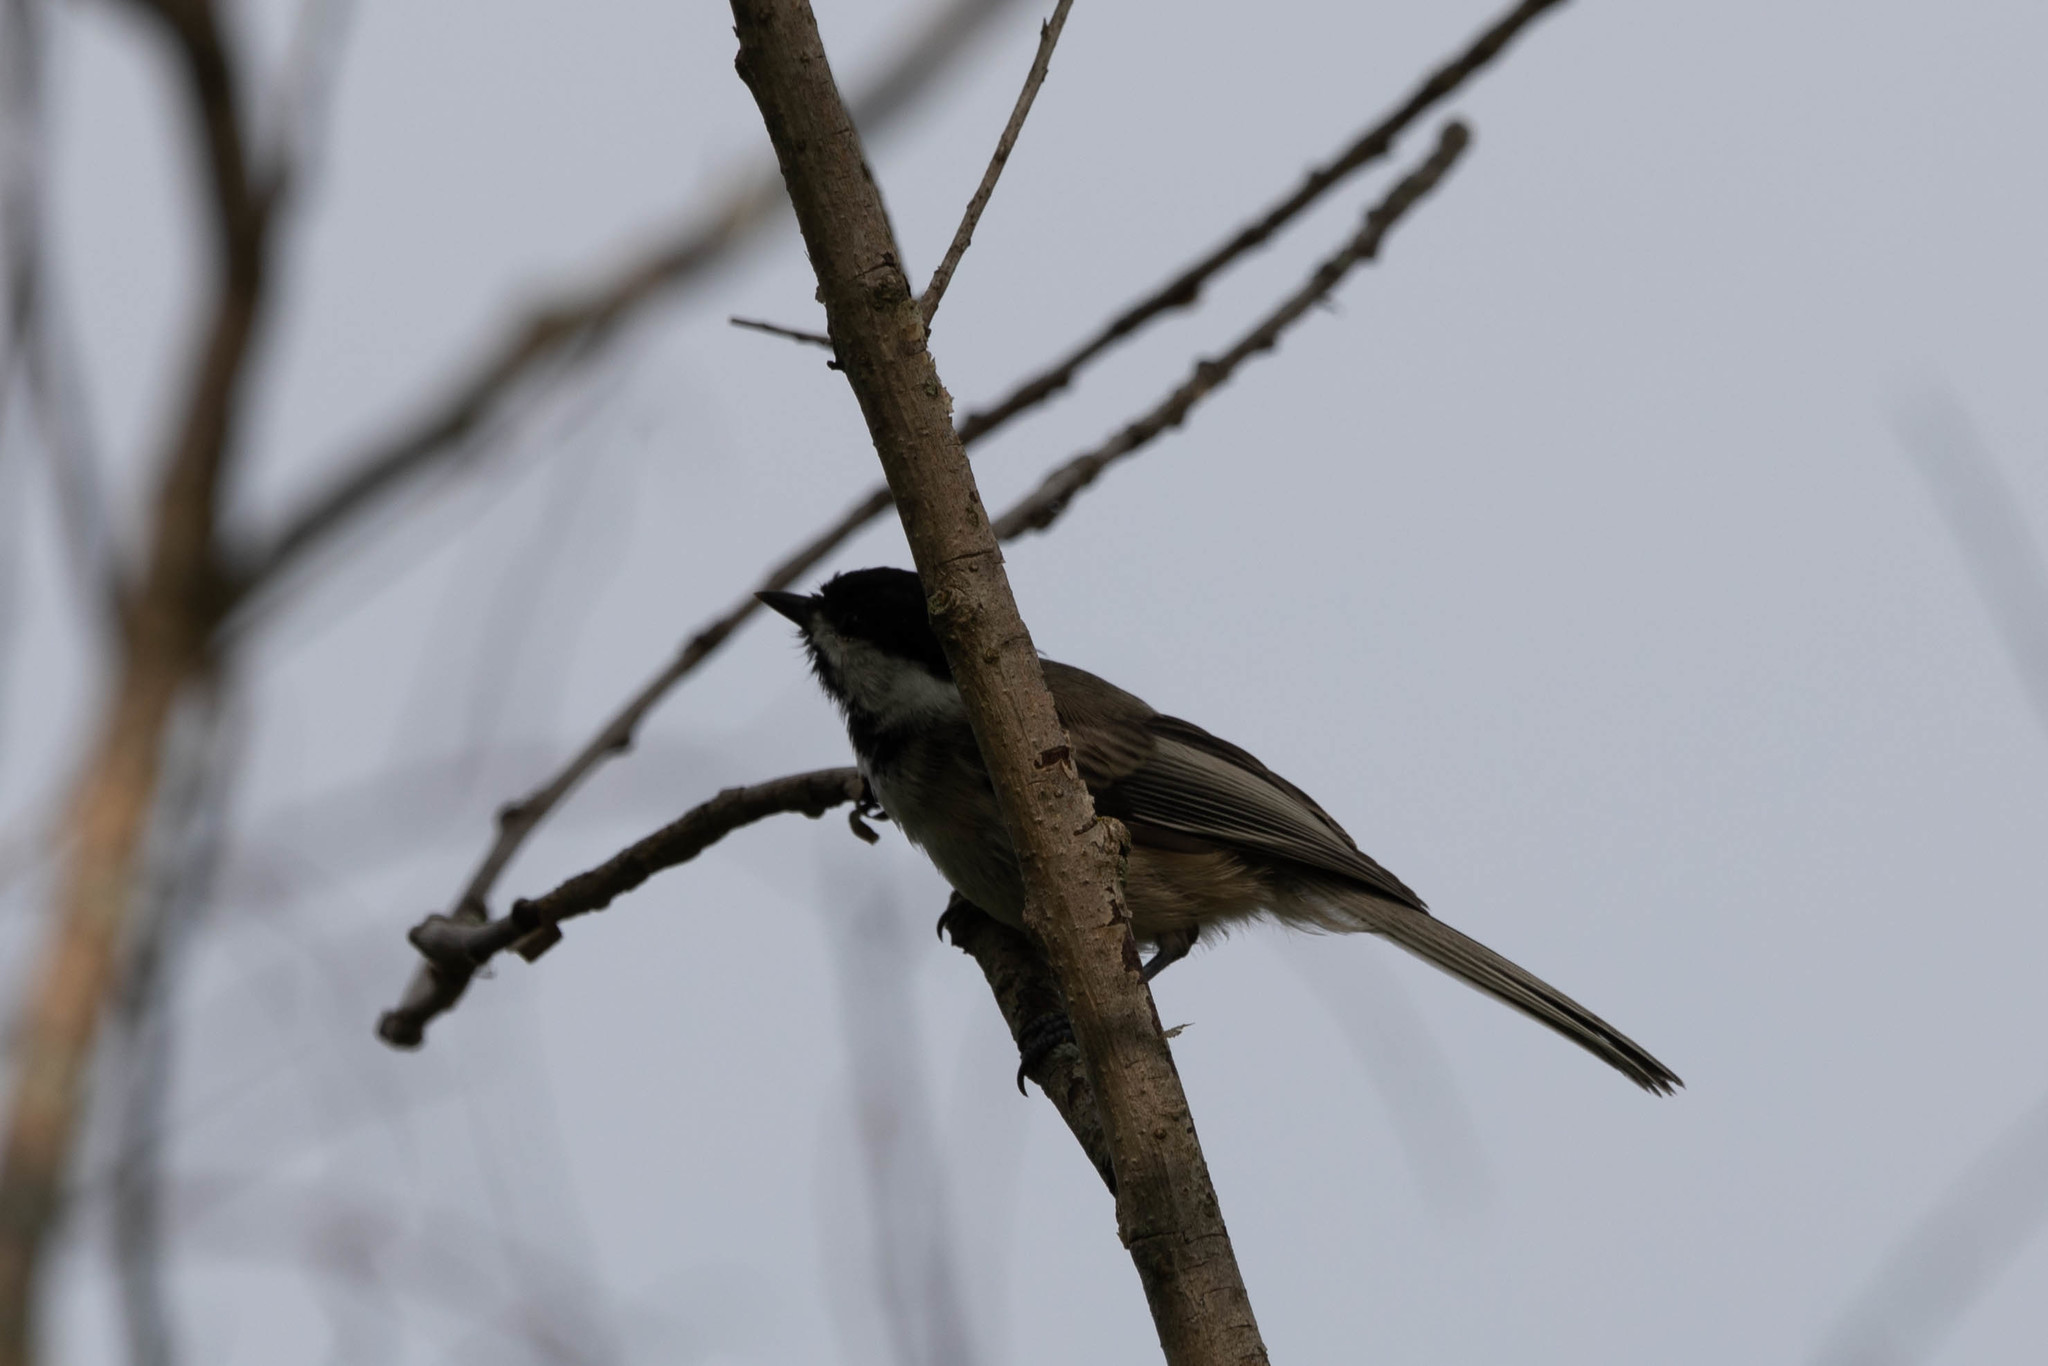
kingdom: Animalia
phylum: Chordata
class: Aves
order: Passeriformes
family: Paridae
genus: Poecile
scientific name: Poecile atricapillus
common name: Black-capped chickadee
